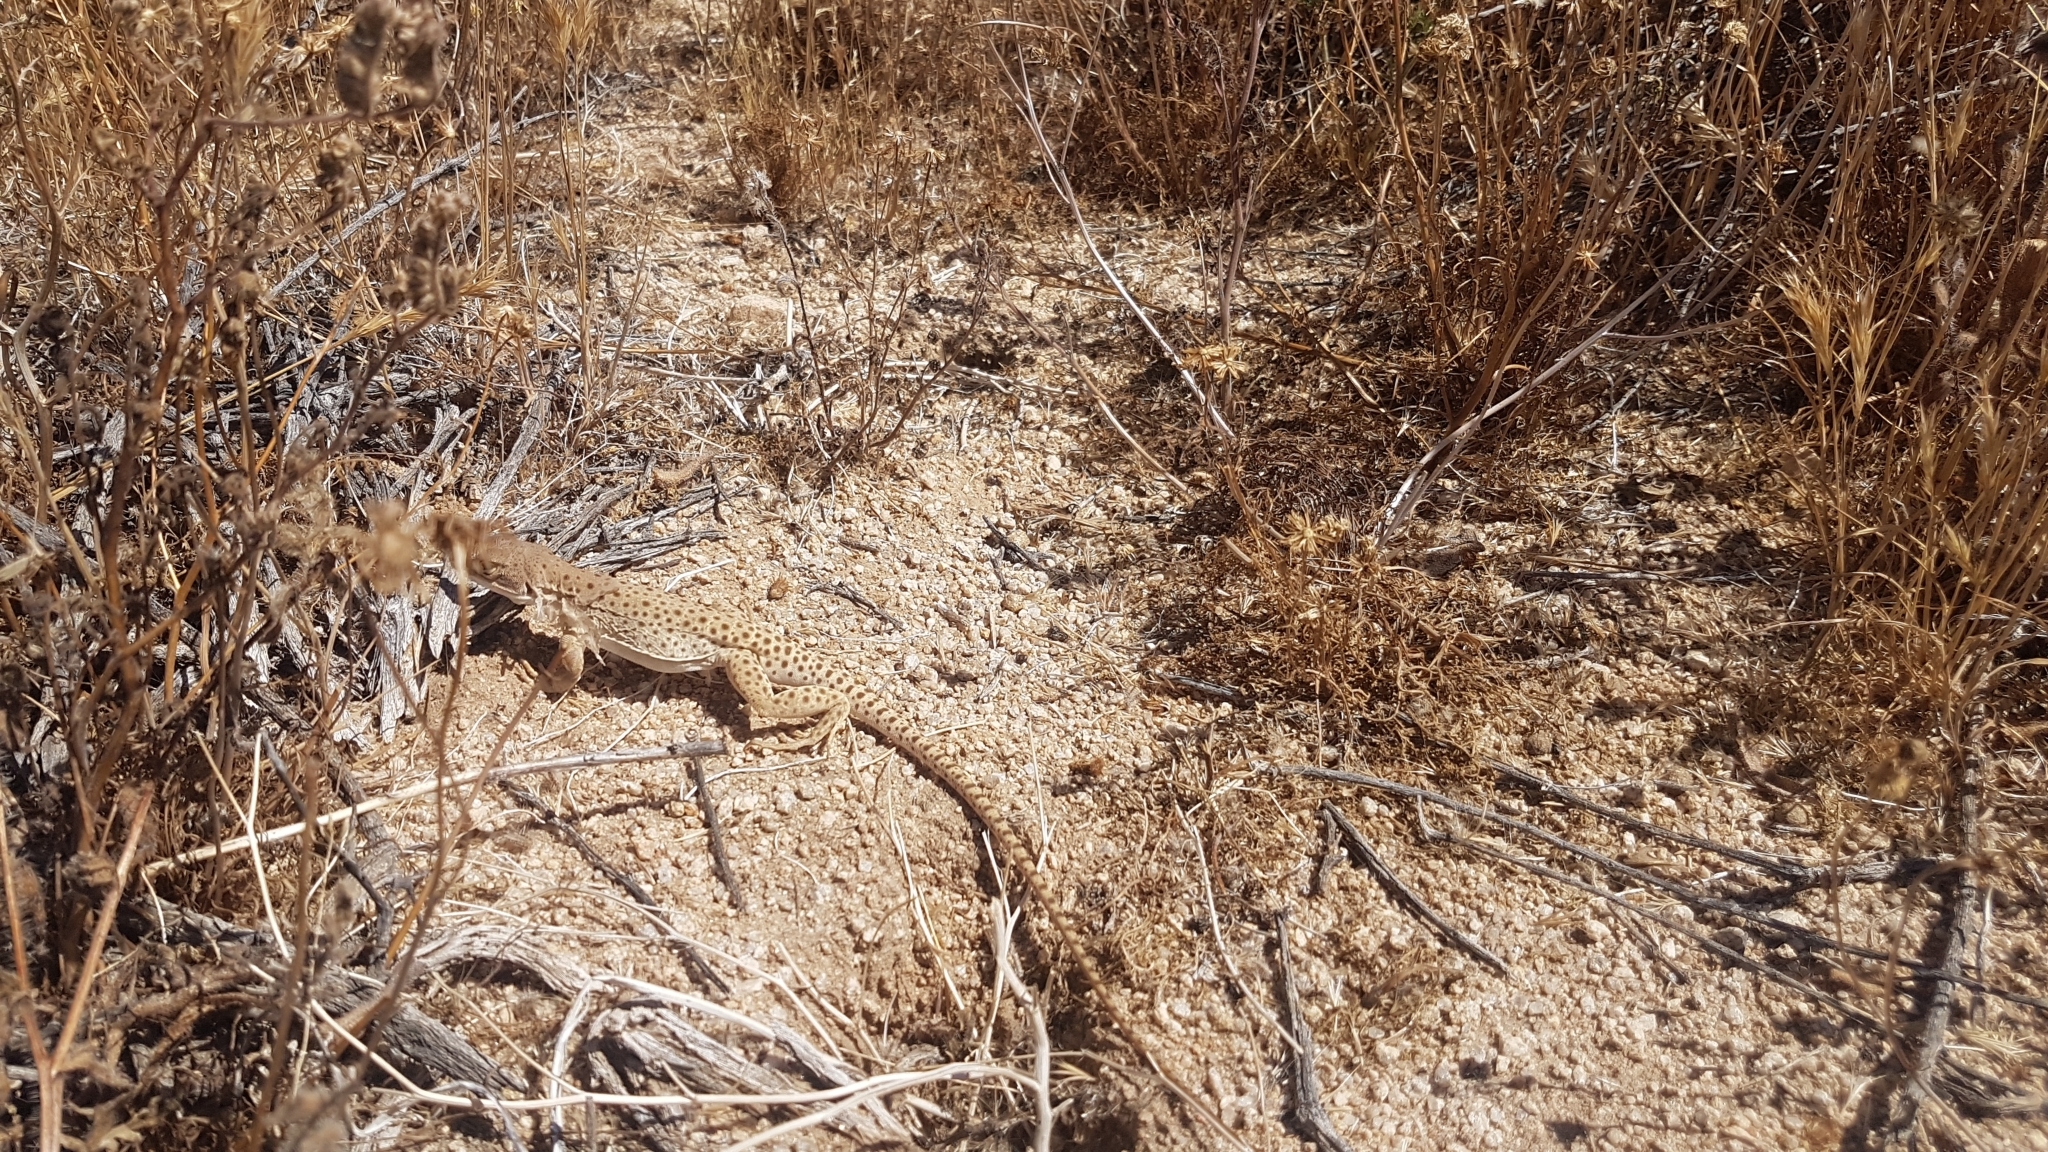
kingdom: Animalia
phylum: Chordata
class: Squamata
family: Crotaphytidae
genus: Gambelia
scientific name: Gambelia wislizenii
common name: Longnose leopard lizard
